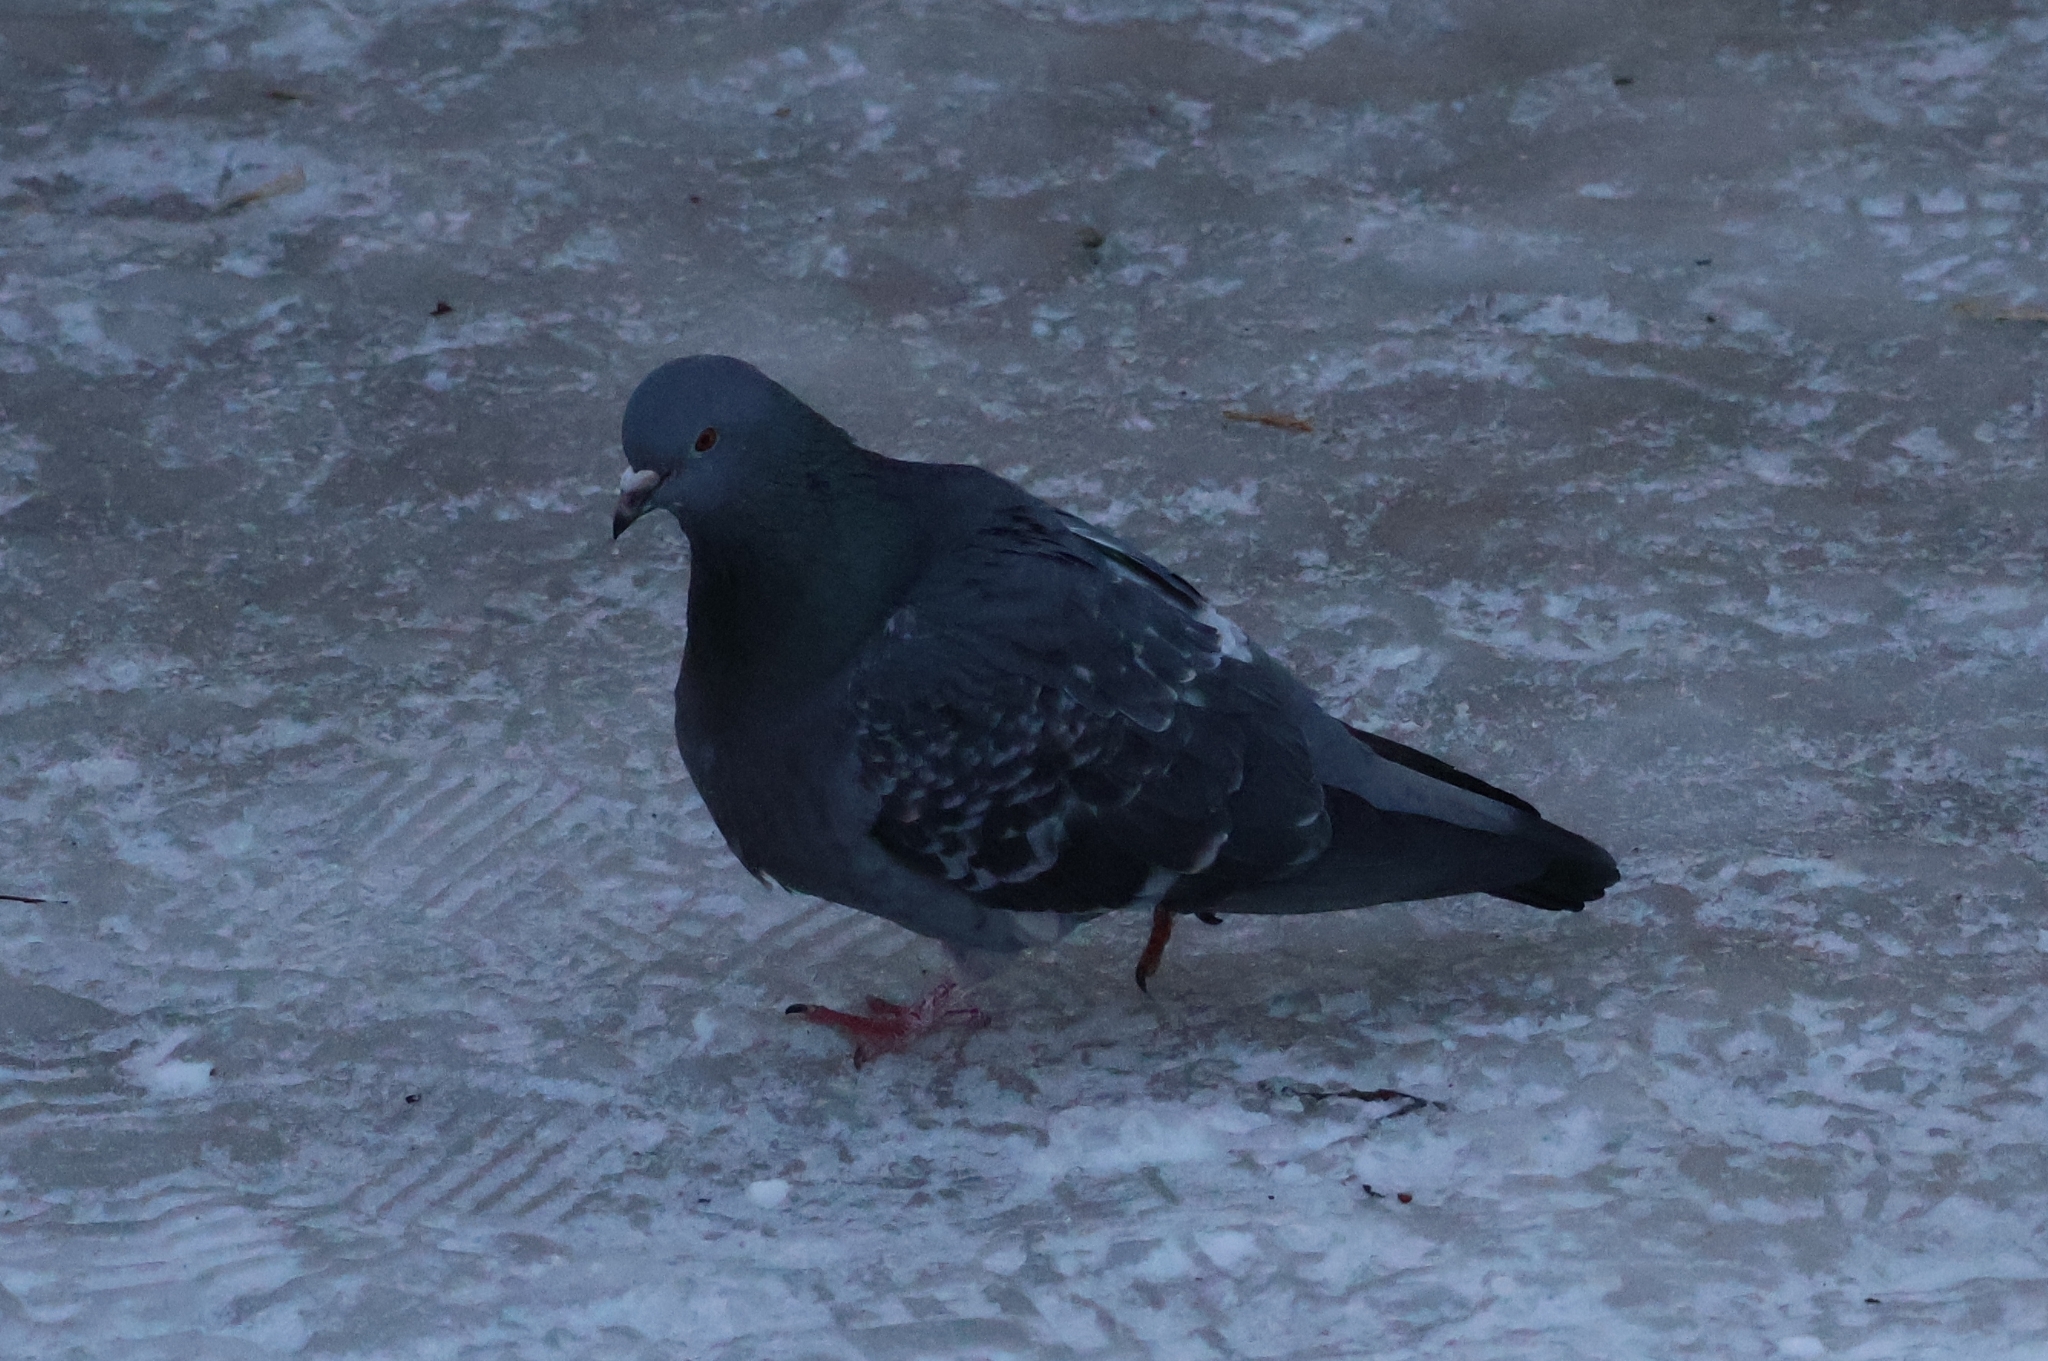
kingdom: Animalia
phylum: Chordata
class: Aves
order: Columbiformes
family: Columbidae
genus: Columba
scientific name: Columba livia
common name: Rock pigeon
